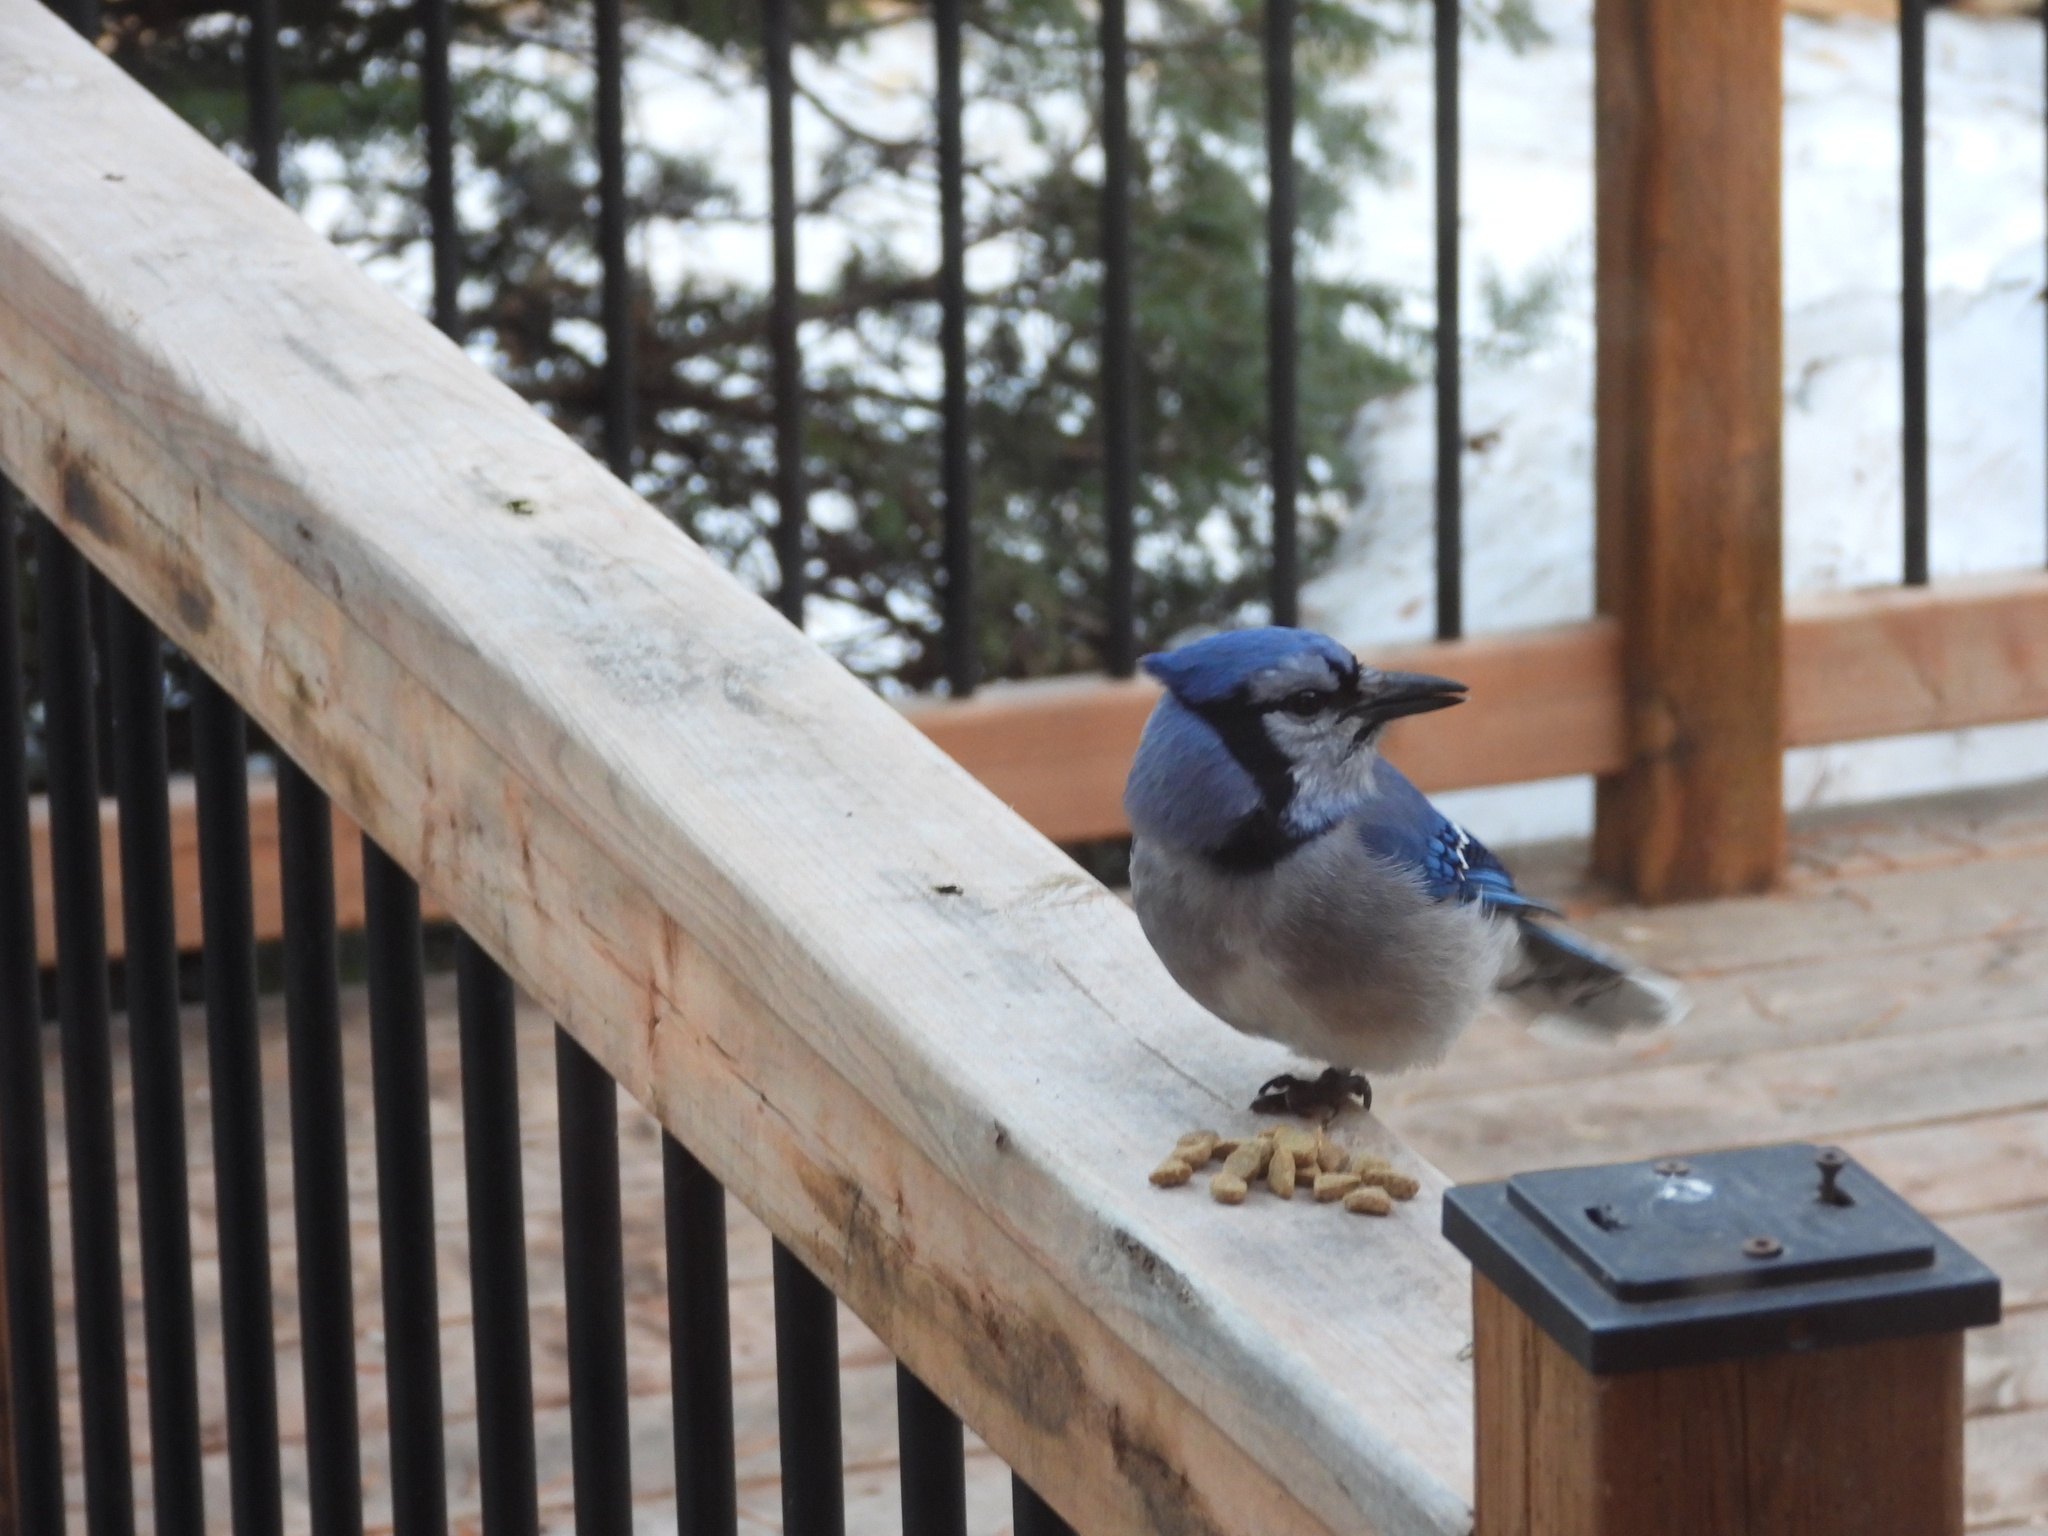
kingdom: Animalia
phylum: Chordata
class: Aves
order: Passeriformes
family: Corvidae
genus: Cyanocitta
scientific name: Cyanocitta cristata
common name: Blue jay
